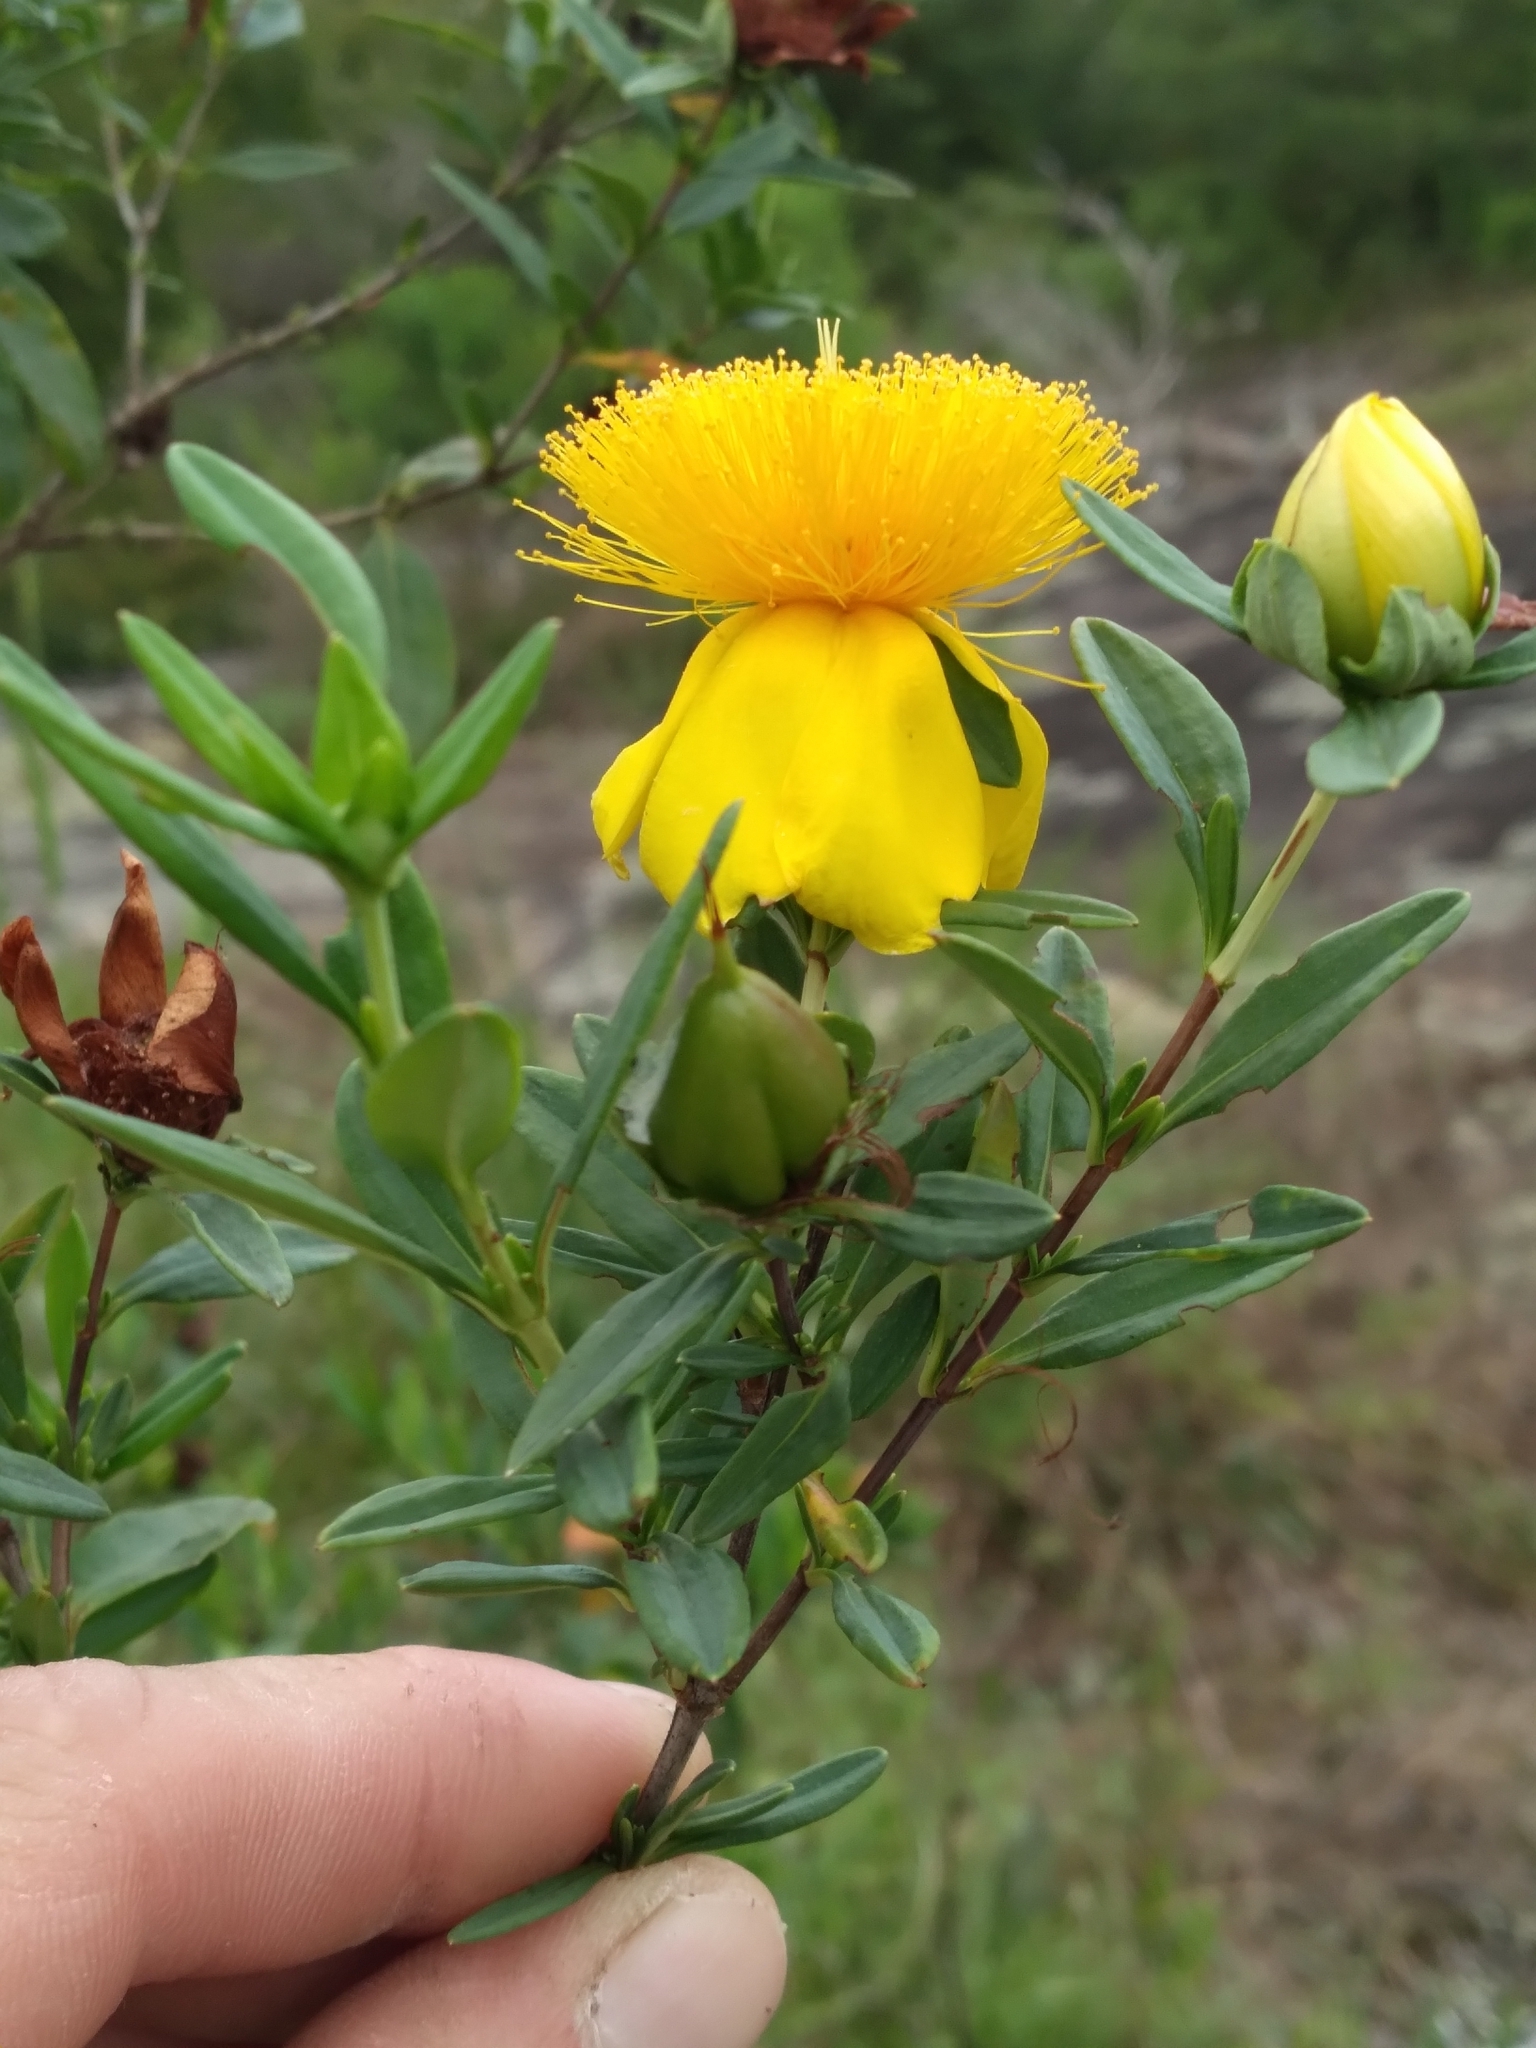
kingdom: Plantae
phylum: Tracheophyta
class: Magnoliopsida
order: Malpighiales
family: Hypericaceae
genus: Hypericum
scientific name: Hypericum frondosum
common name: Golden st. john's-wort
